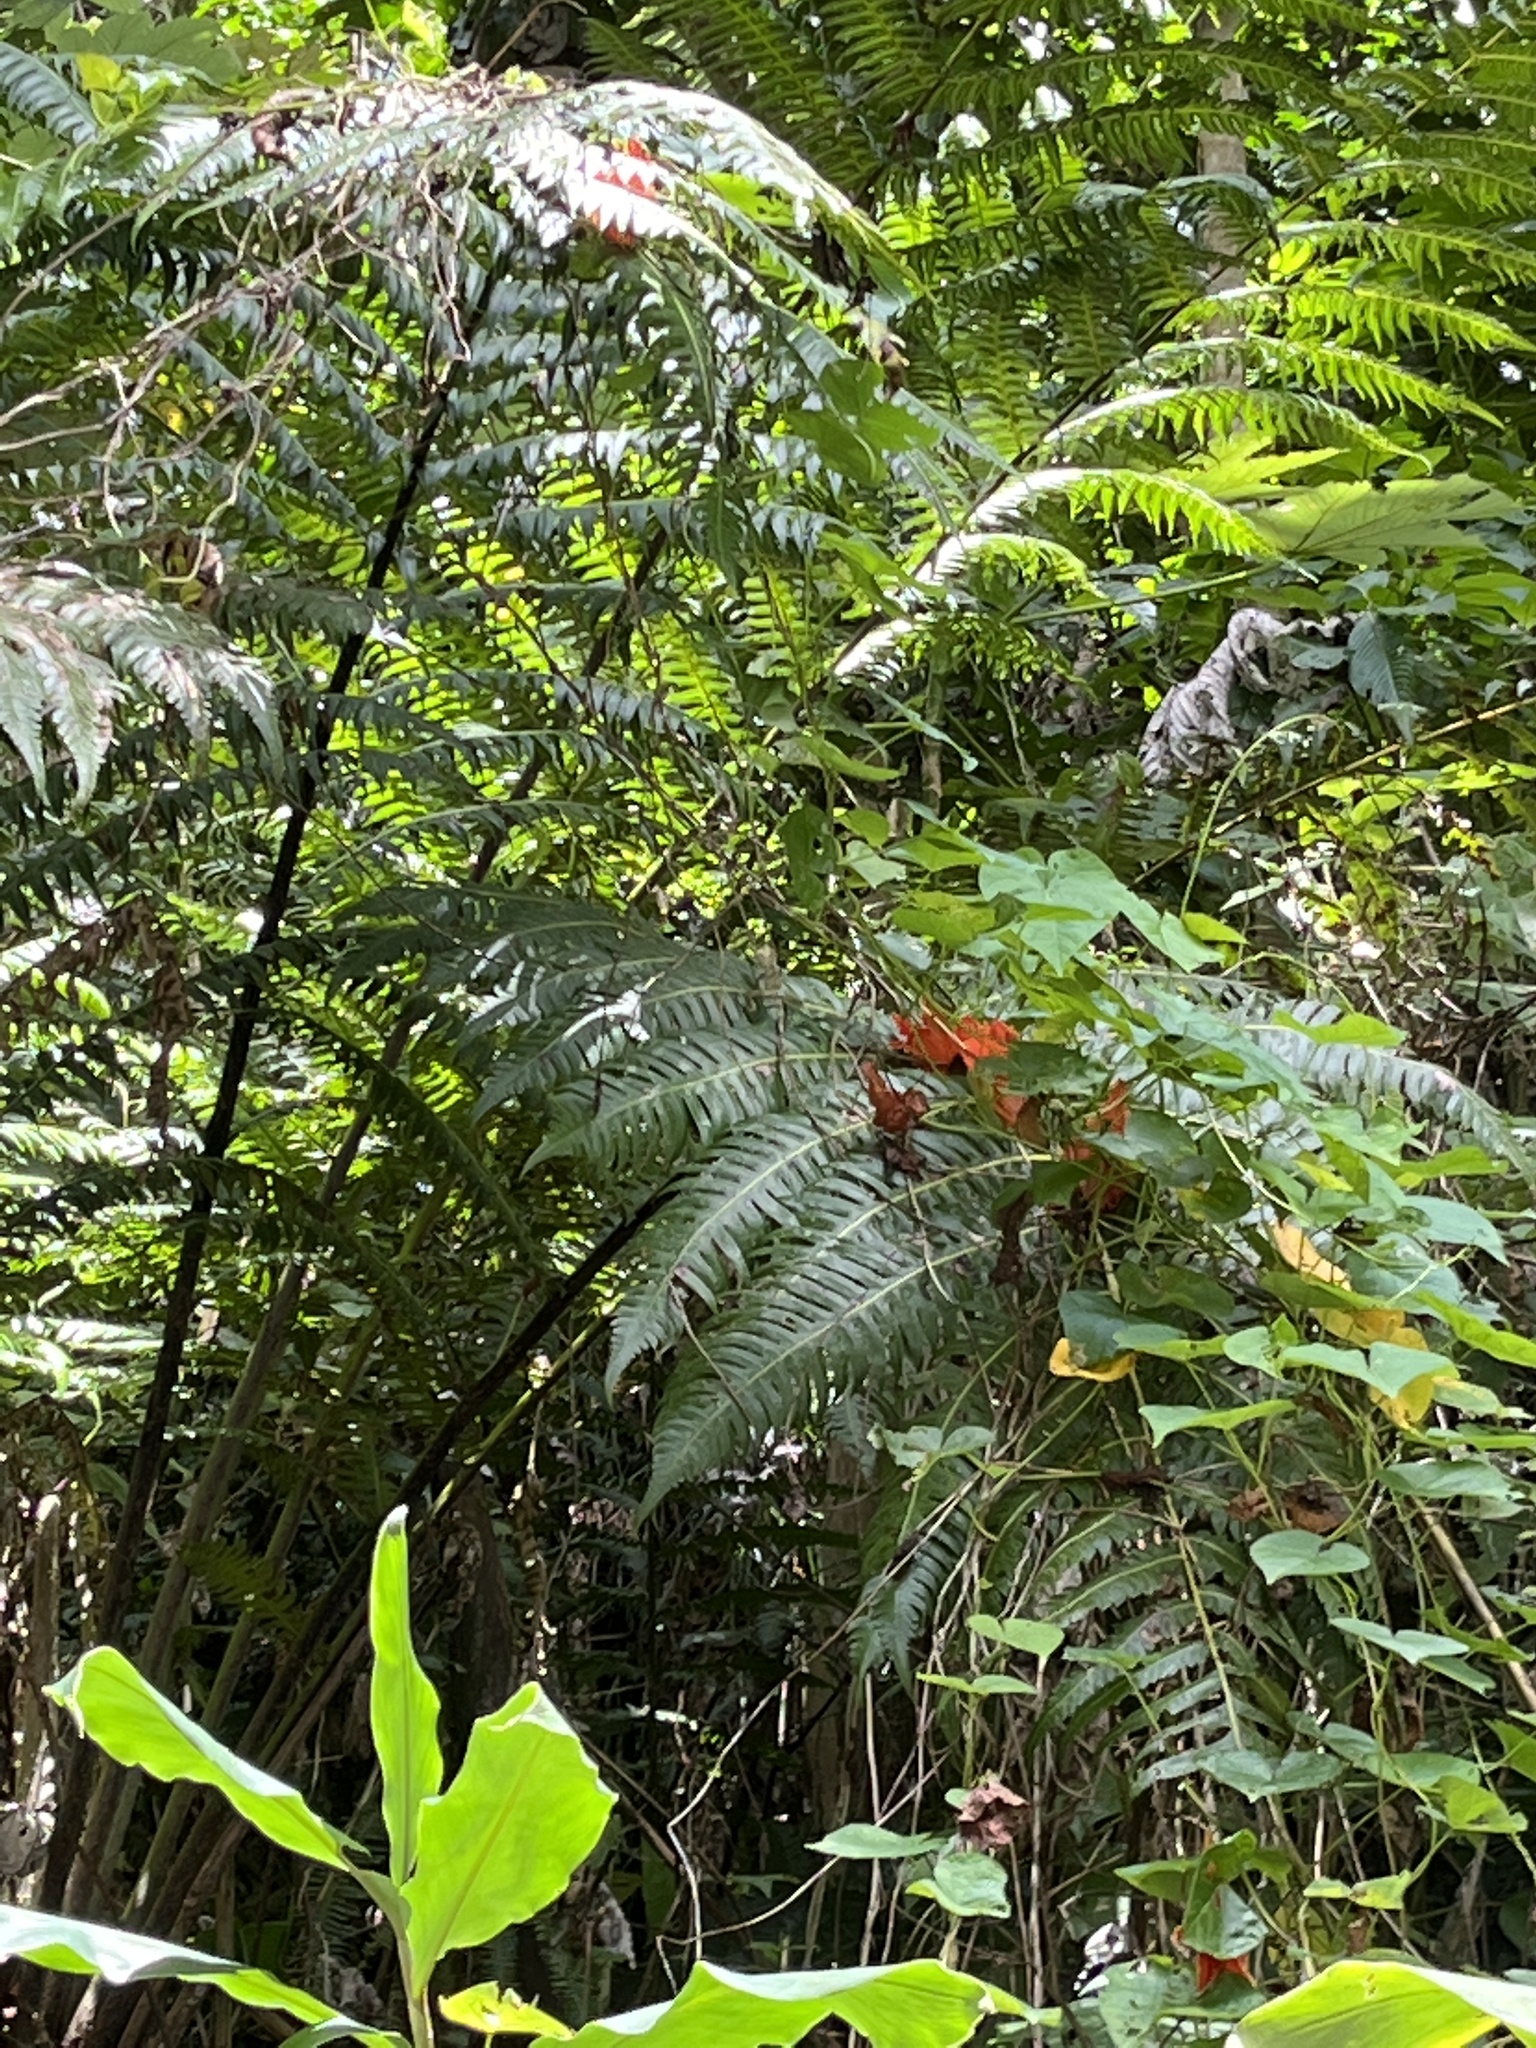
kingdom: Plantae
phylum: Tracheophyta
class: Polypodiopsida
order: Cyatheales
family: Cyatheaceae
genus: Cyathea
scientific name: Cyathea horrida
